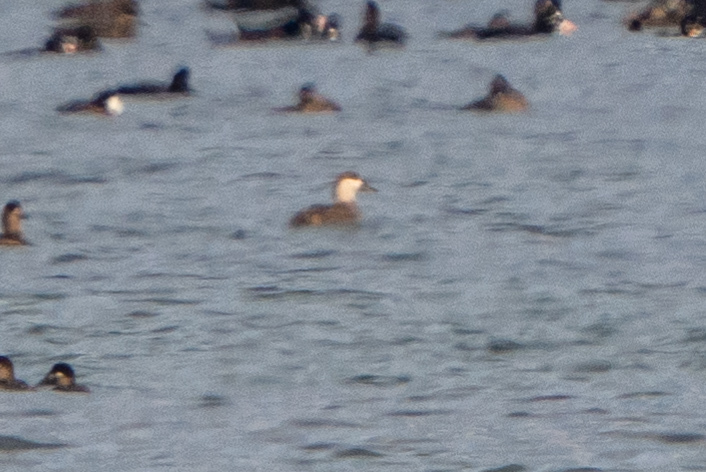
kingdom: Animalia
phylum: Chordata
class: Aves
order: Anseriformes
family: Anatidae
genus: Melanitta
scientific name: Melanitta americana
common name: Black scoter
